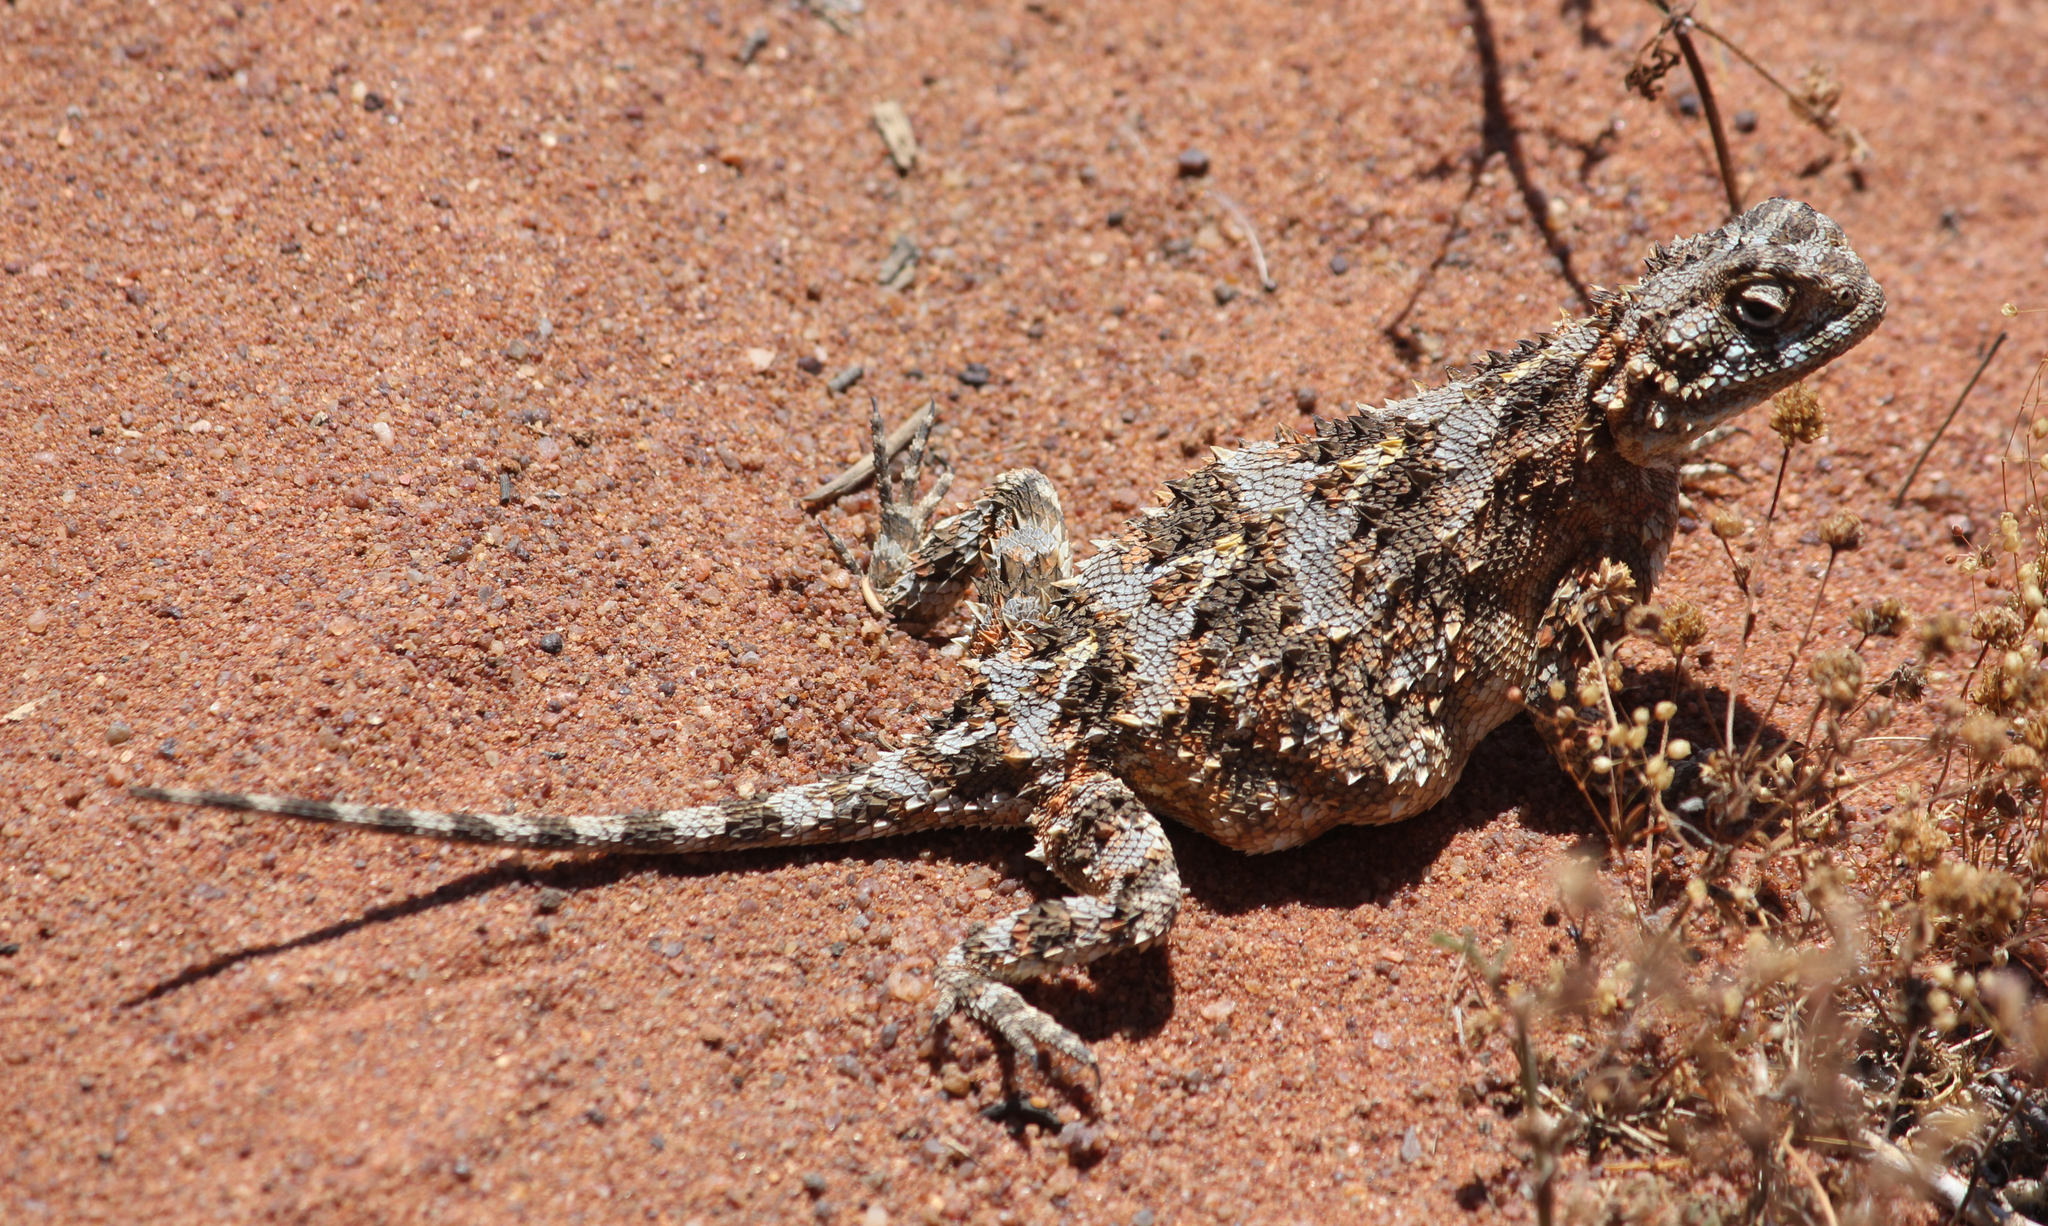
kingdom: Animalia
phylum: Chordata
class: Squamata
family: Agamidae
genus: Agama
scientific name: Agama hispida
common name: Common spiny agama
